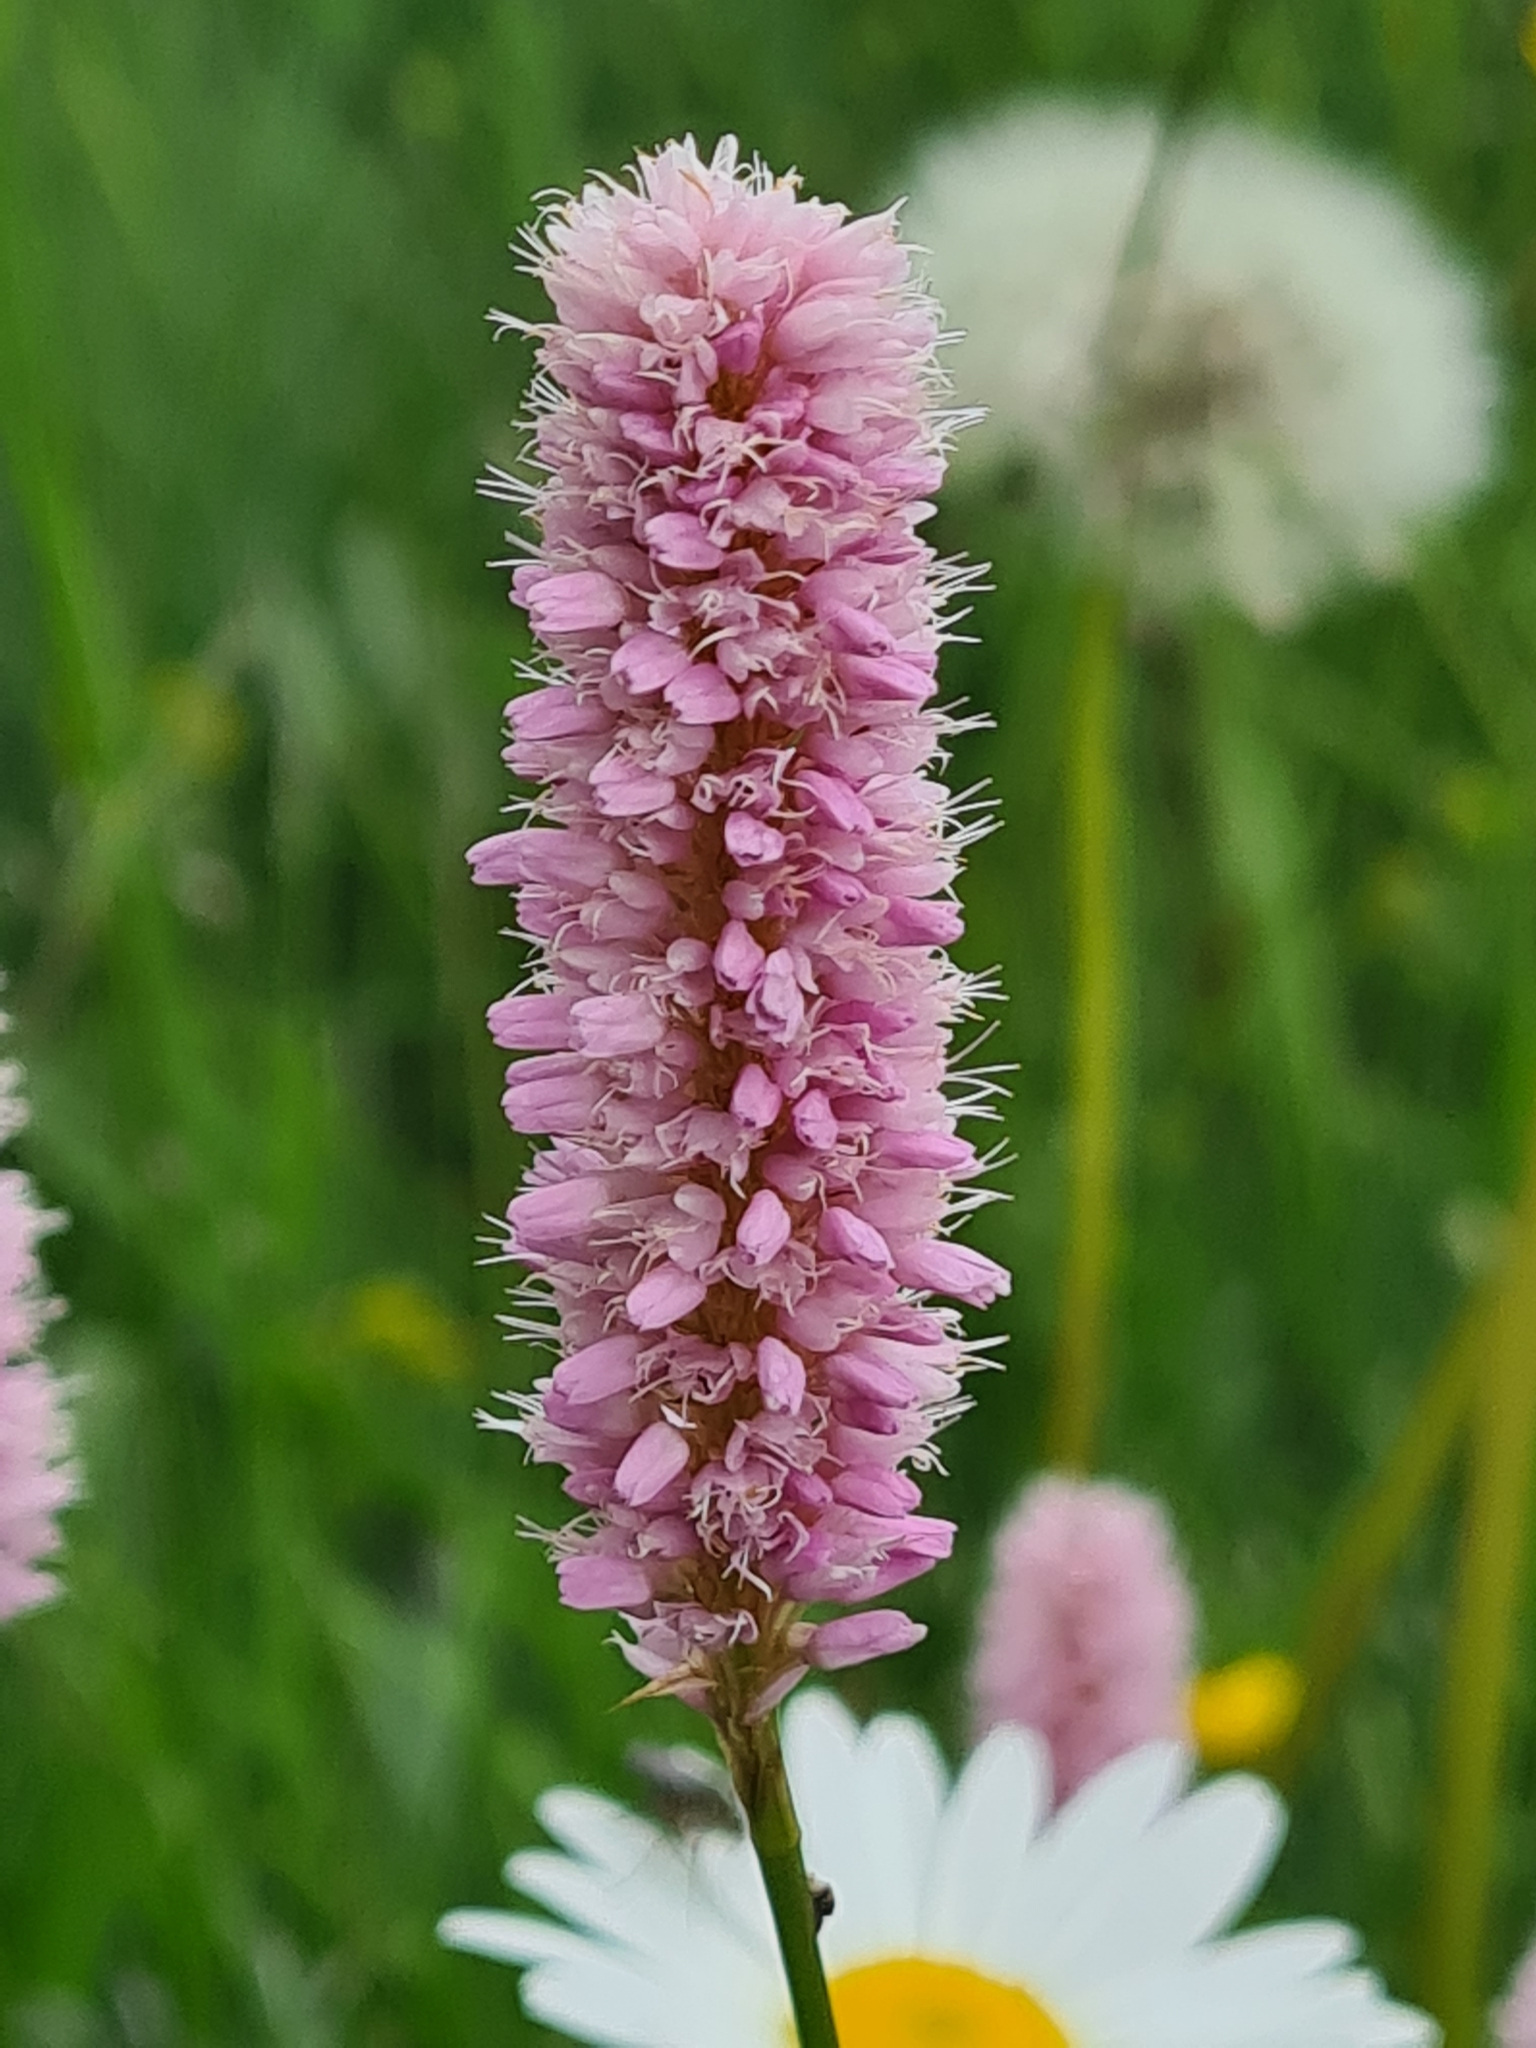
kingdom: Plantae
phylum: Tracheophyta
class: Magnoliopsida
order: Caryophyllales
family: Polygonaceae
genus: Bistorta
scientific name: Bistorta officinalis
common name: Common bistort
